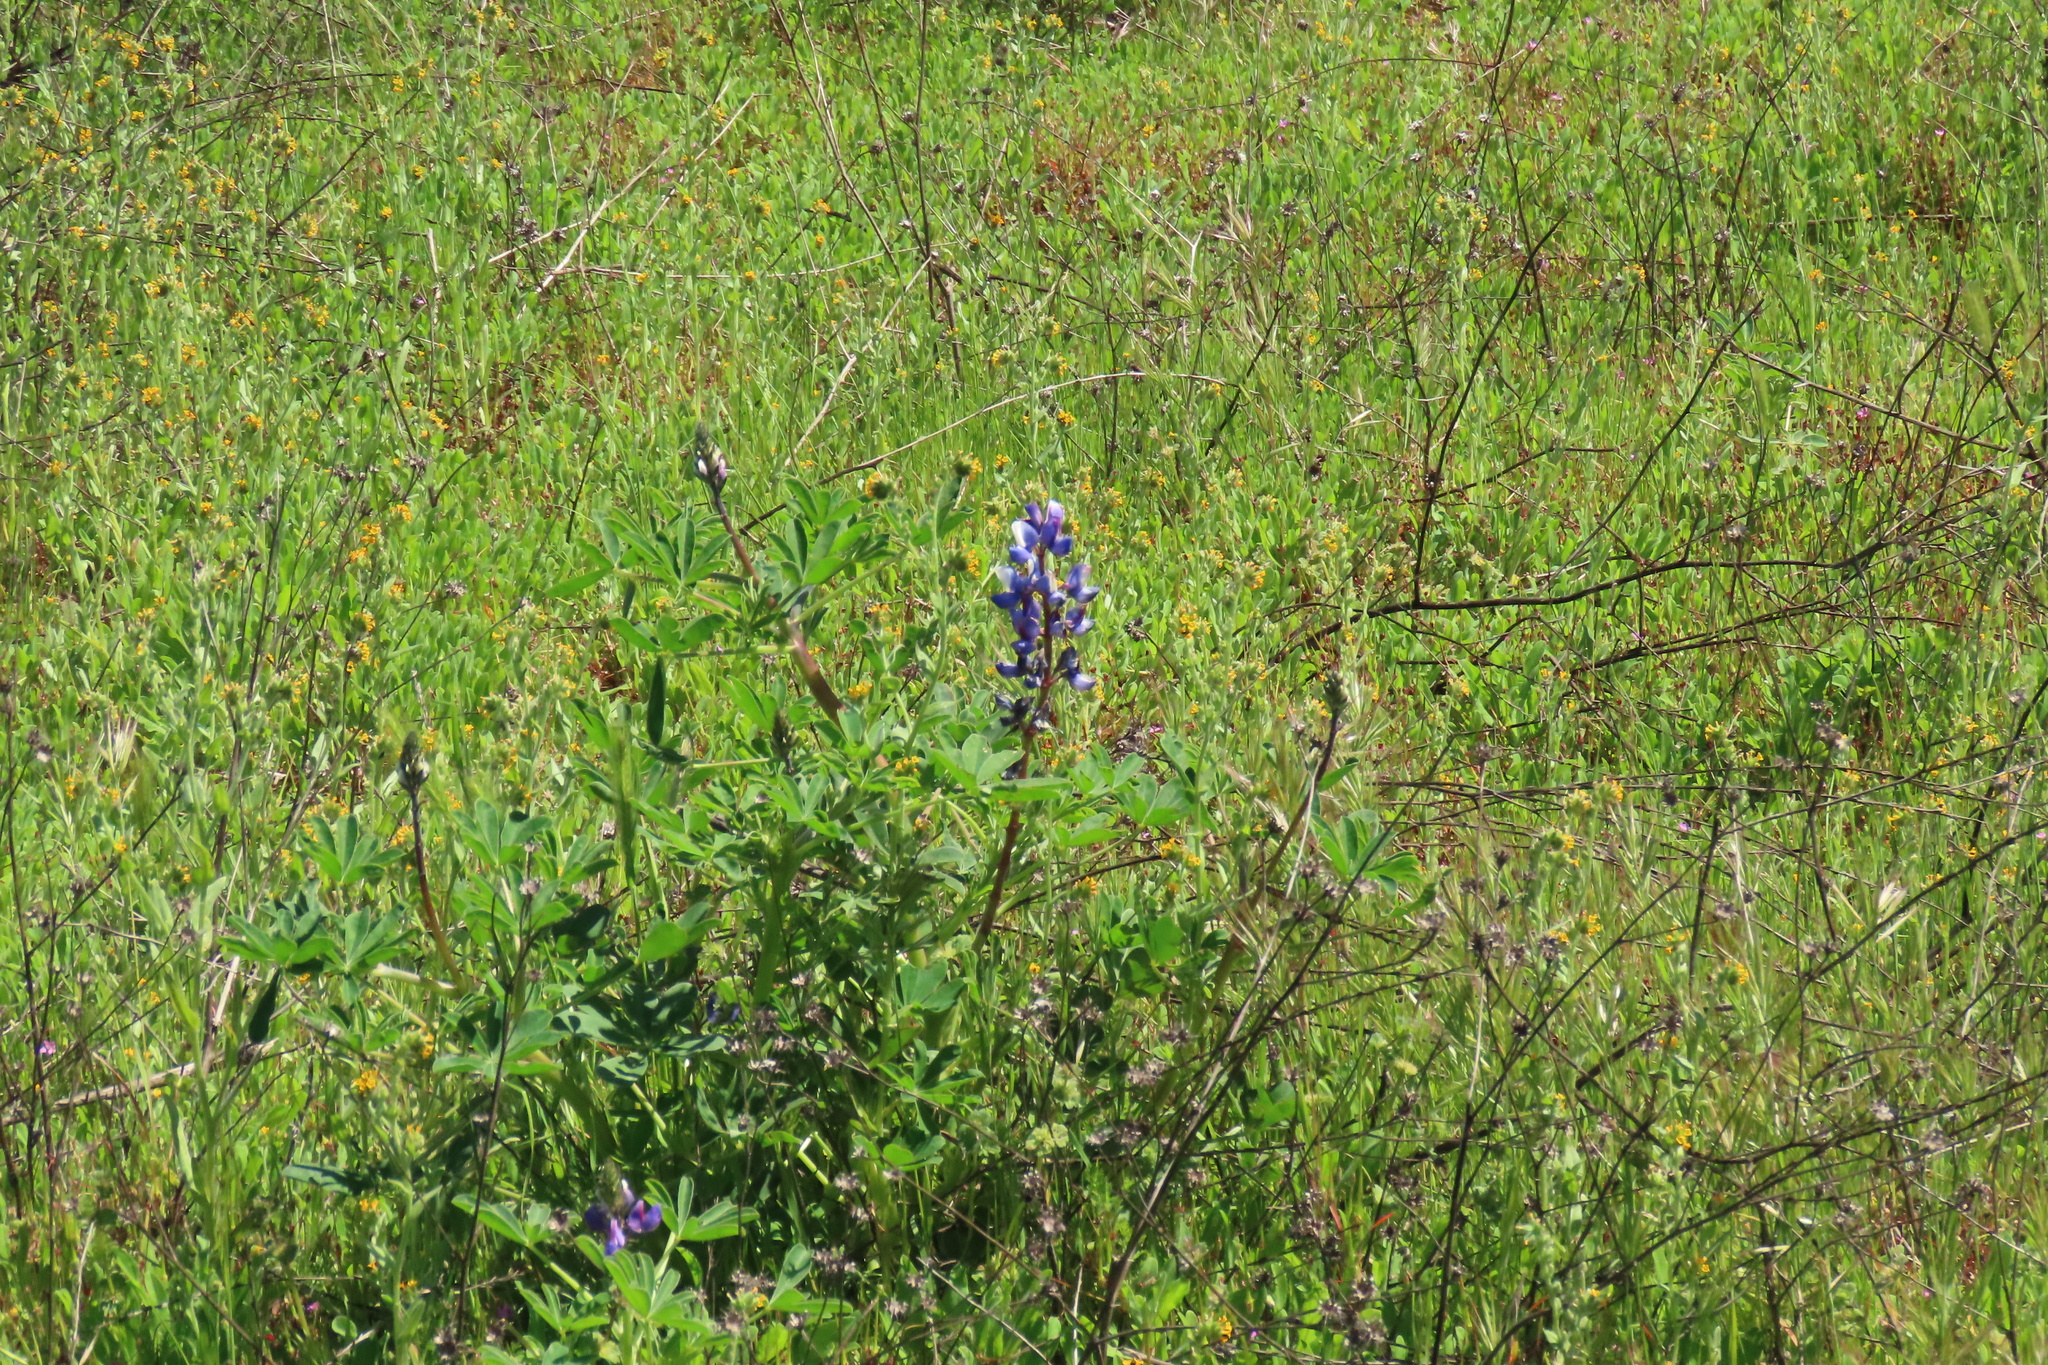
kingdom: Plantae
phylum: Tracheophyta
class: Magnoliopsida
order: Fabales
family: Fabaceae
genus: Lupinus
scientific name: Lupinus succulentus
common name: Arroyo lupine
